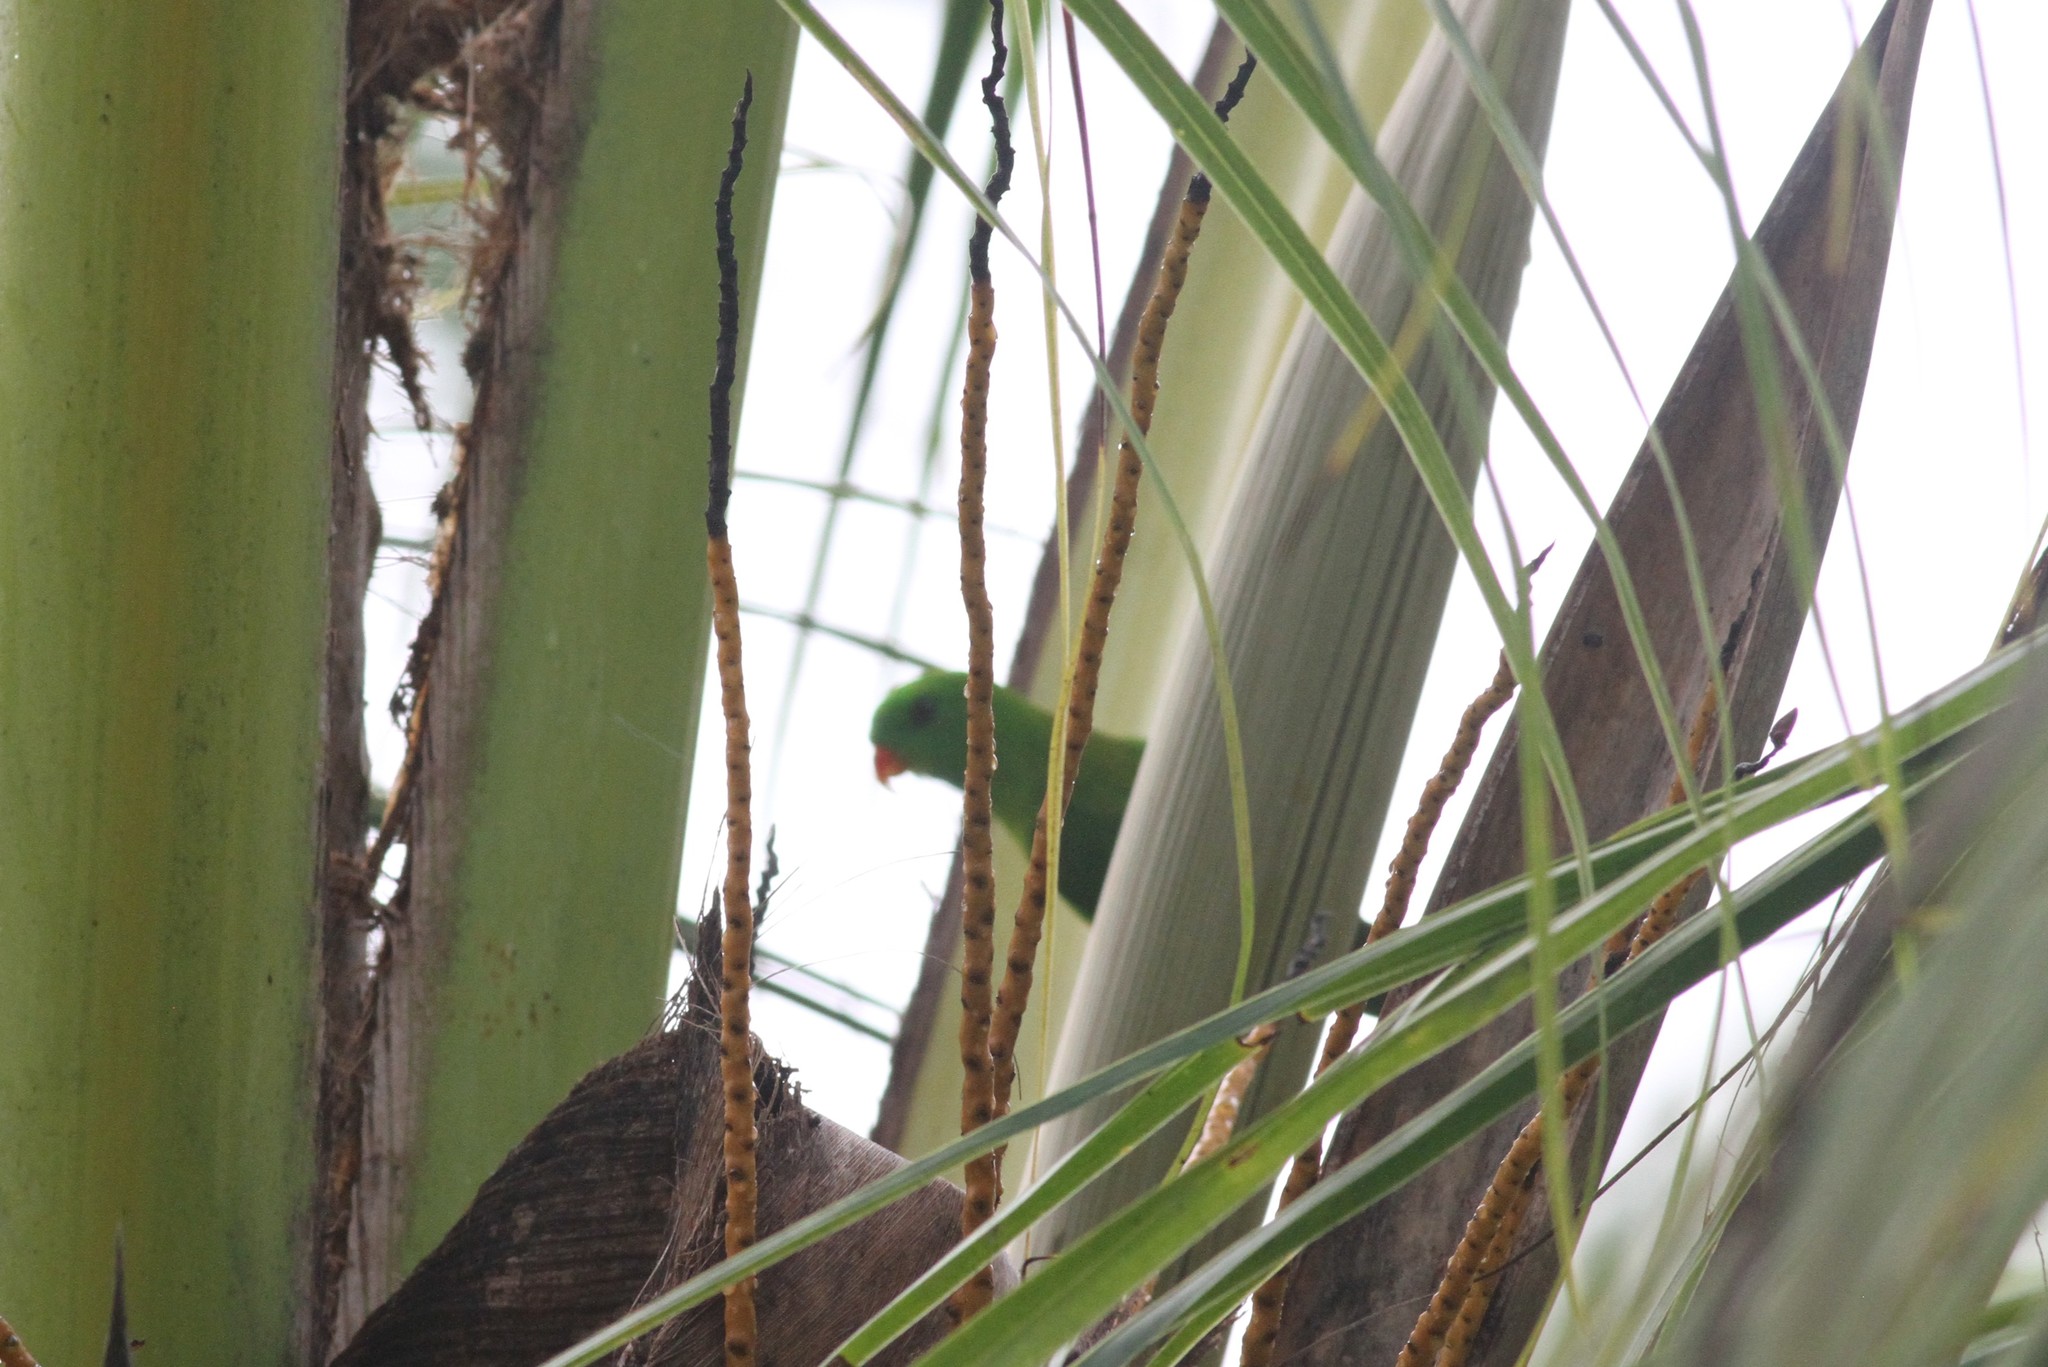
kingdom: Animalia
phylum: Chordata
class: Aves
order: Psittaciformes
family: Psittacidae
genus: Loriculus
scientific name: Loriculus vernalis
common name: Vernal hanging parrot
